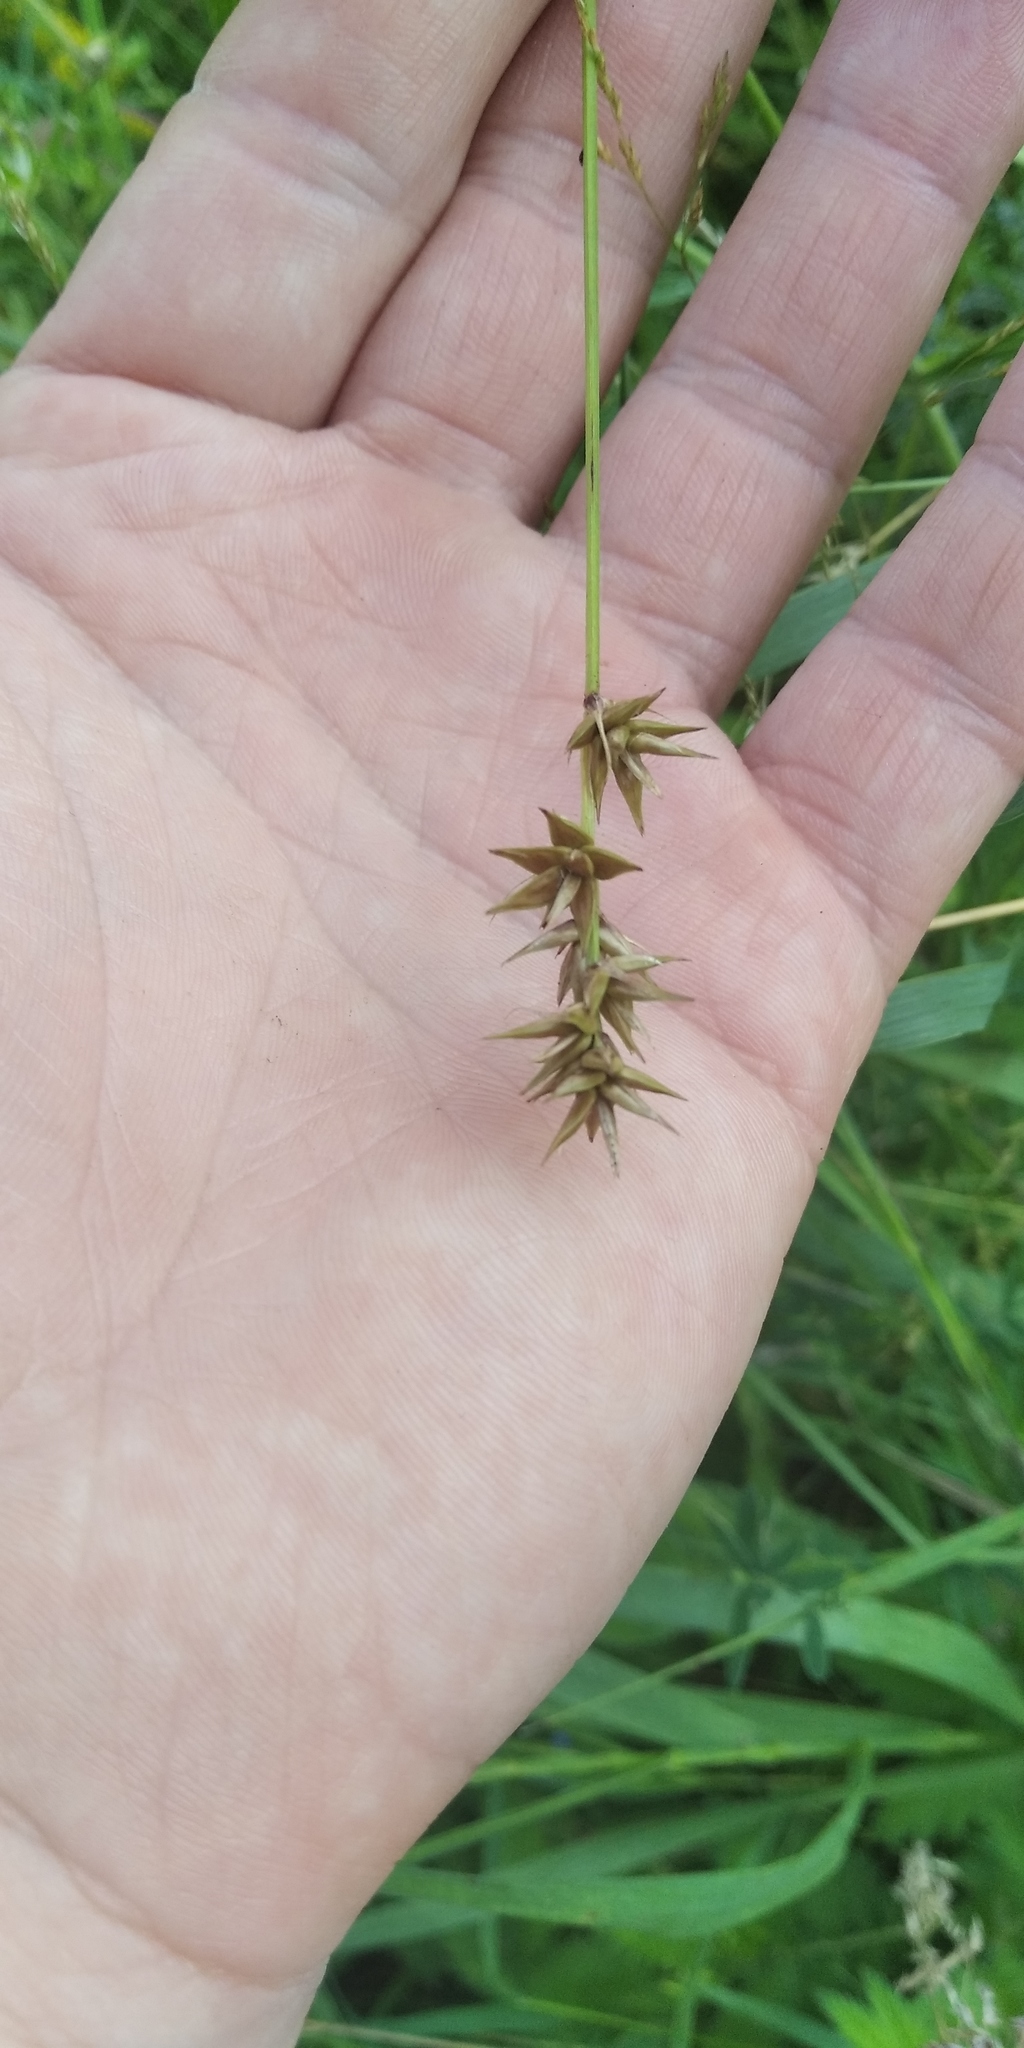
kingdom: Plantae
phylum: Tracheophyta
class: Liliopsida
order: Poales
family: Cyperaceae
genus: Carex
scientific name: Carex spicata
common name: Spiked sedge
